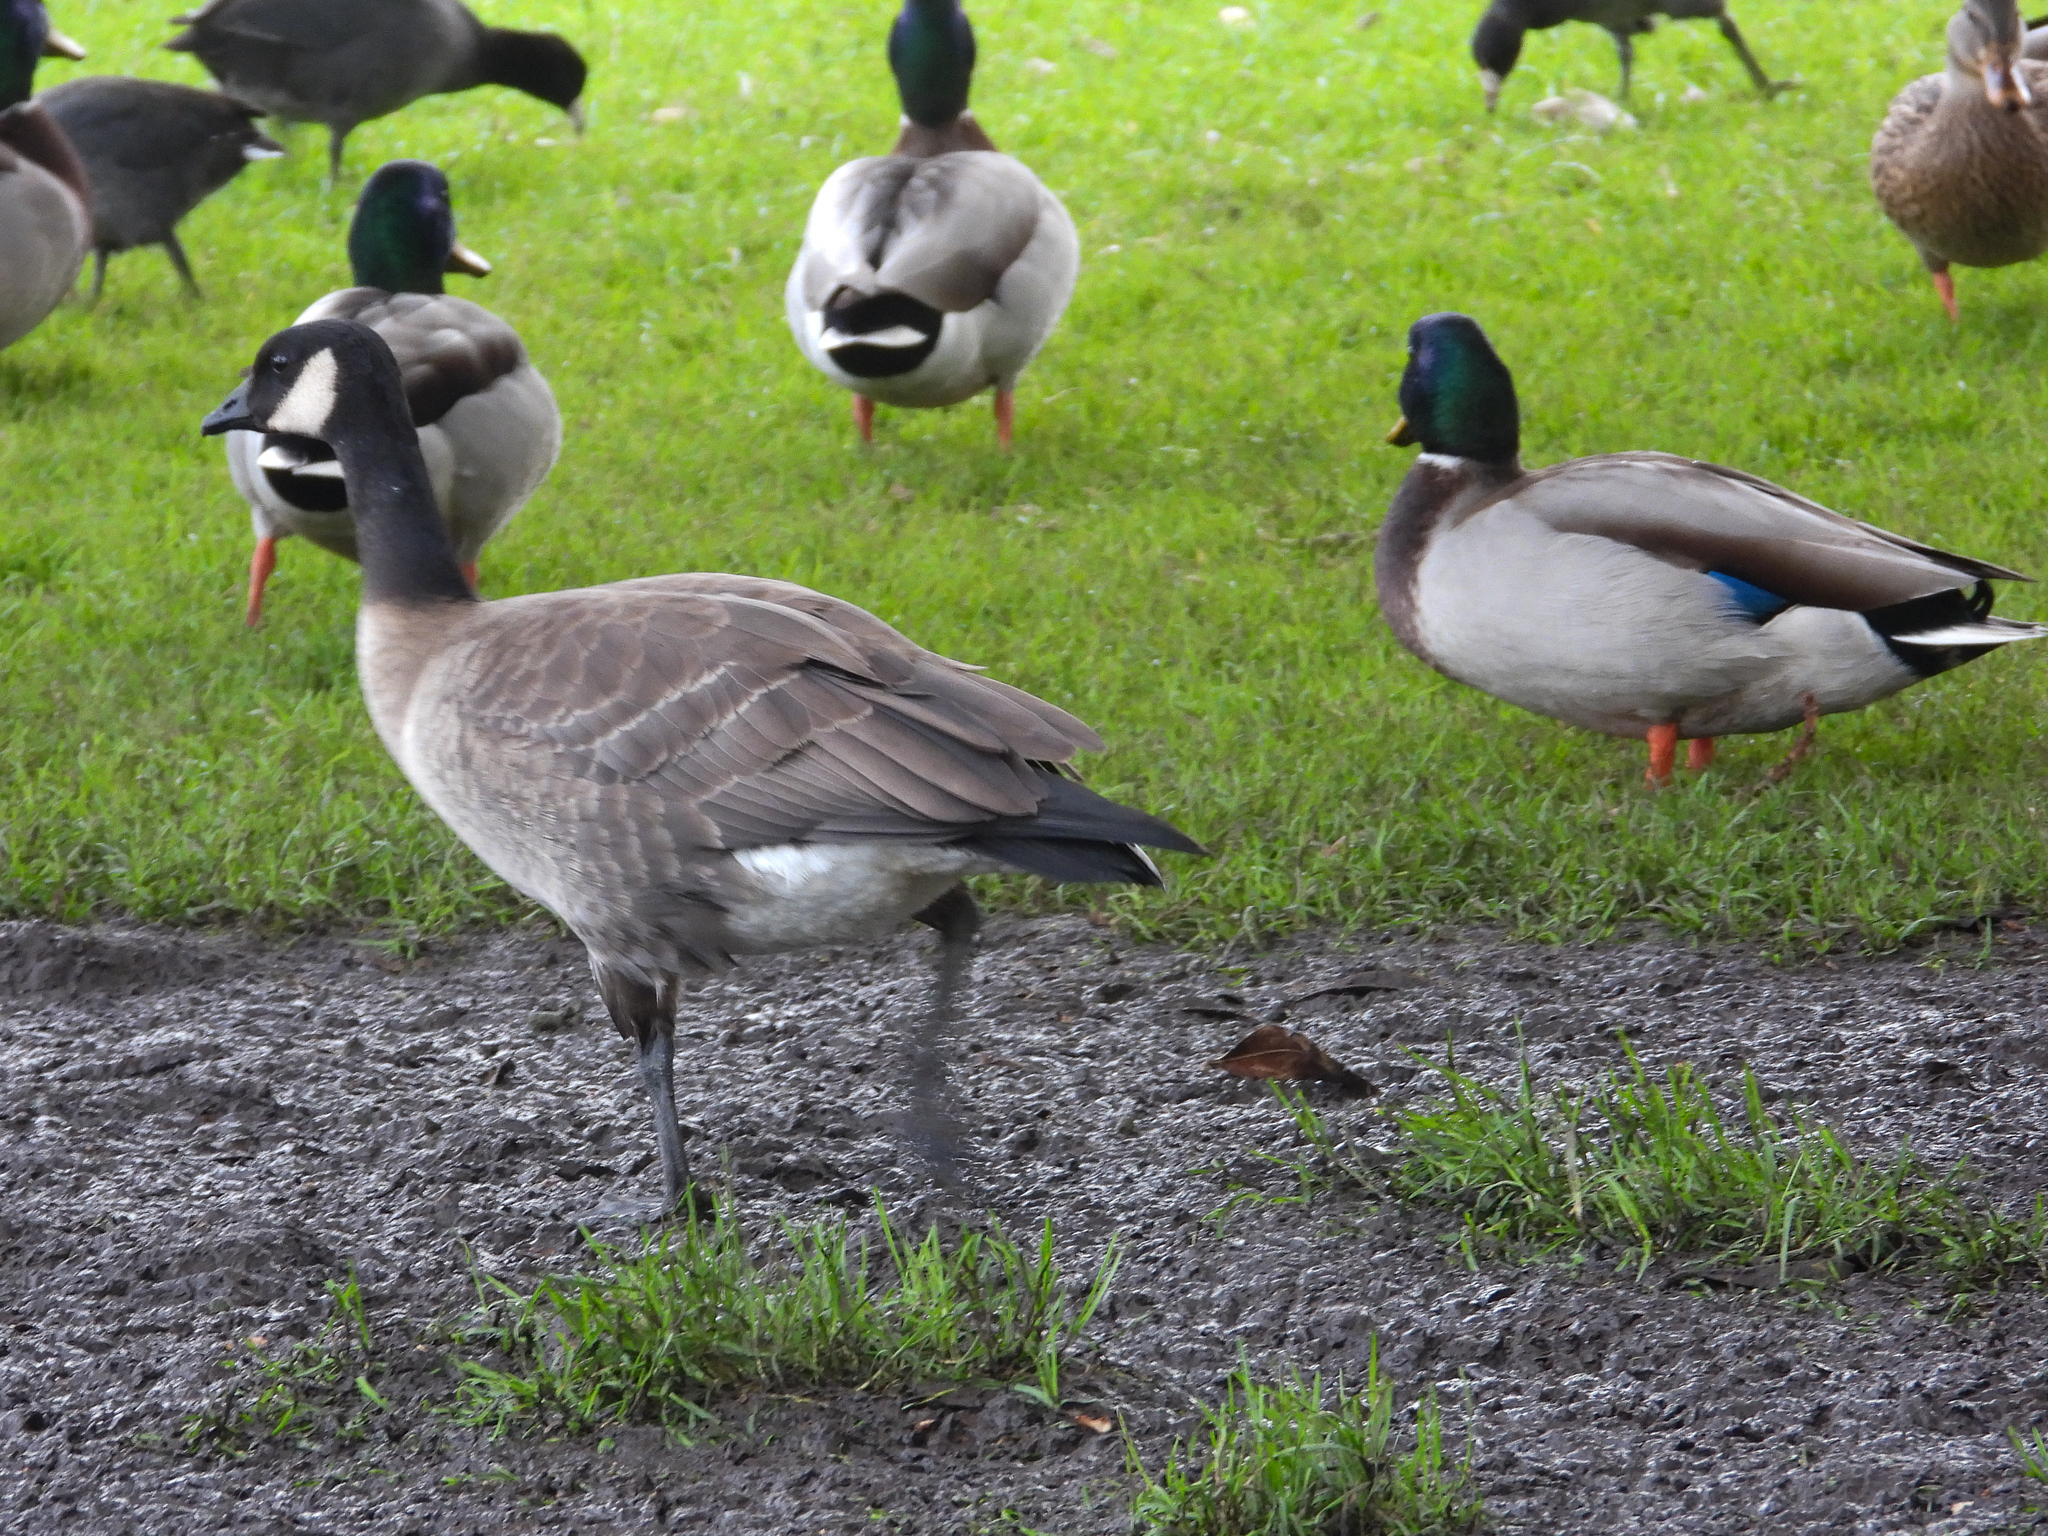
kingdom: Animalia
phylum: Chordata
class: Aves
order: Anseriformes
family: Anatidae
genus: Branta
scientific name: Branta hutchinsii
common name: Cackling goose
